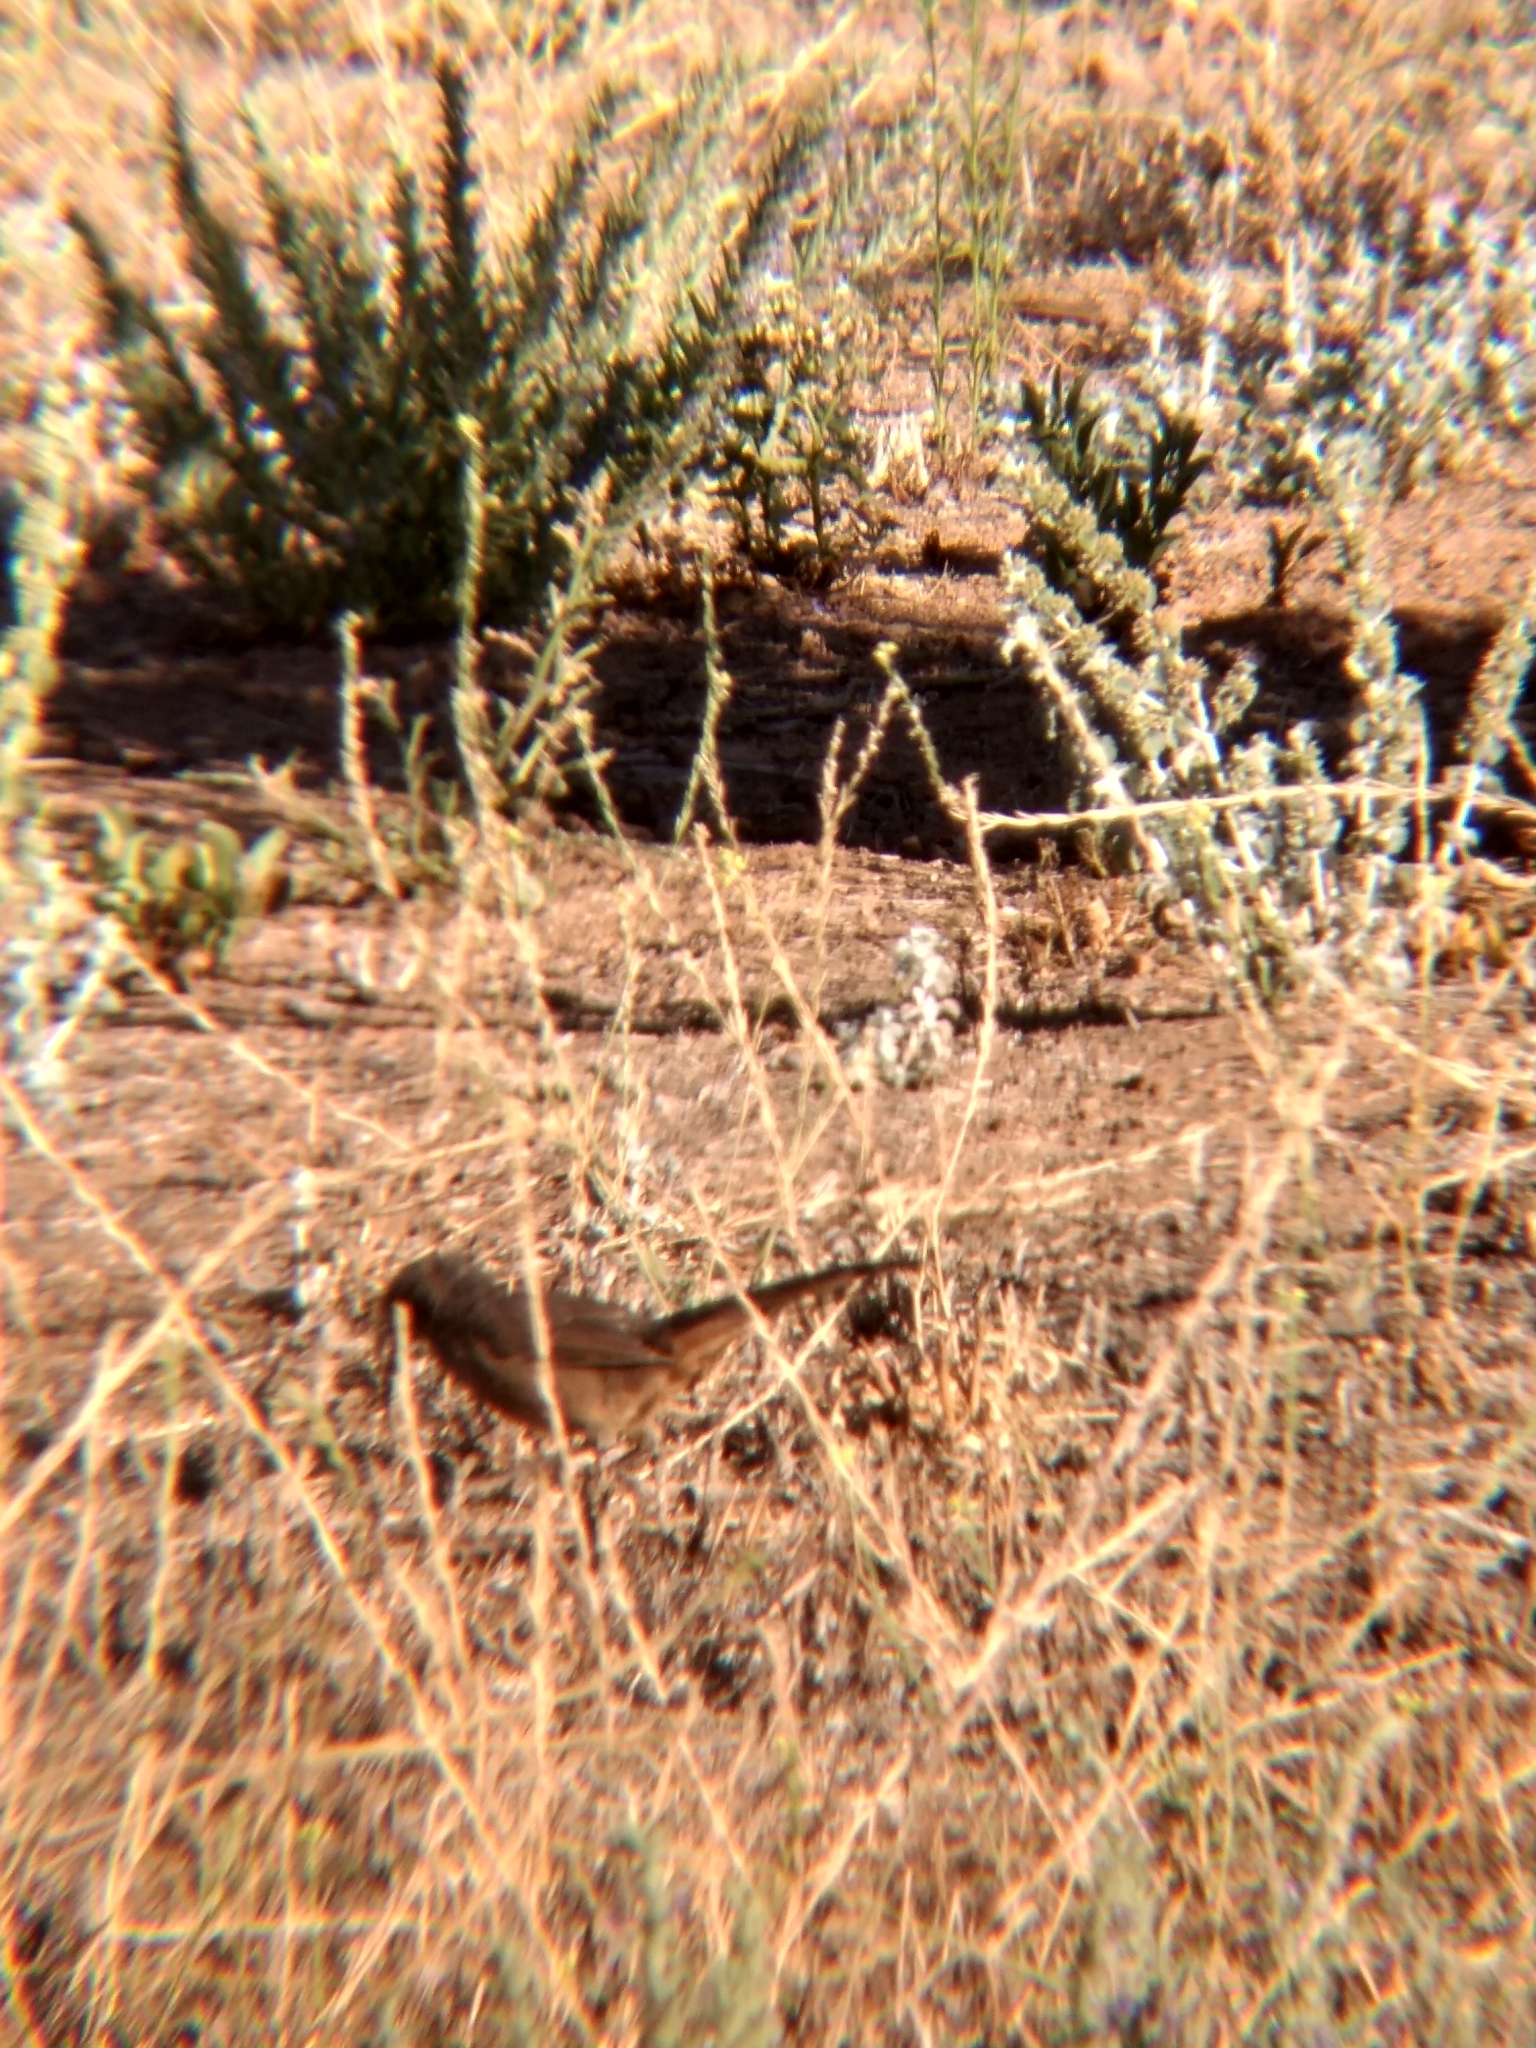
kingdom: Animalia
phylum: Chordata
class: Aves
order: Passeriformes
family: Passerellidae
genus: Melozone
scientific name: Melozone crissalis
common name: California towhee
